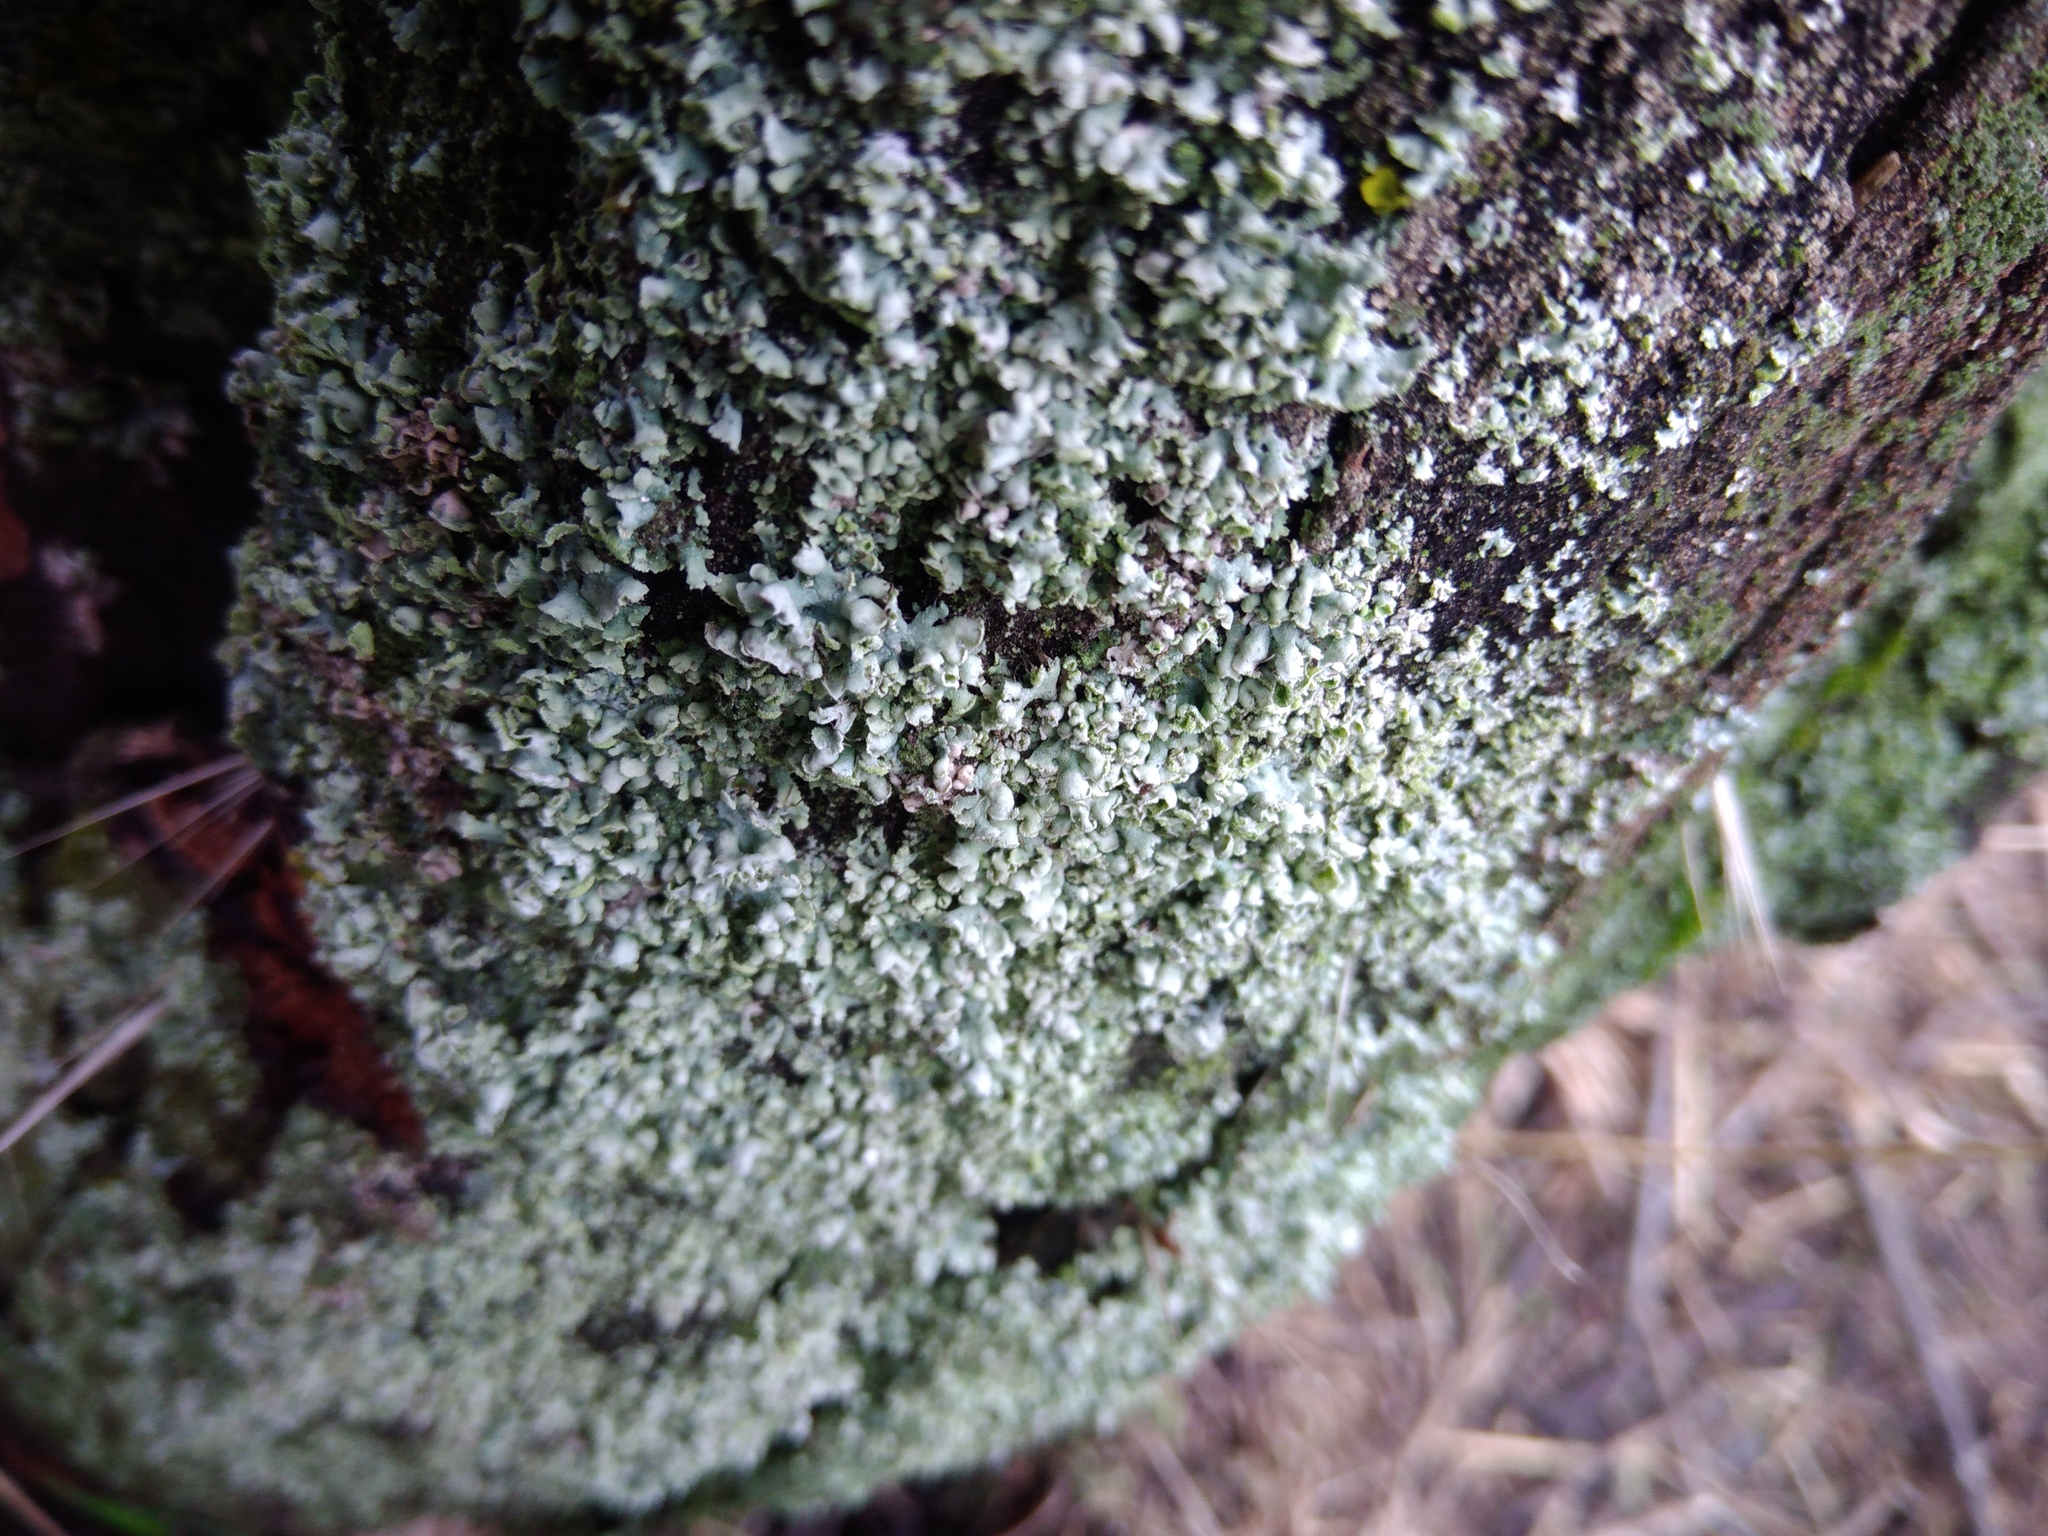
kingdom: Fungi
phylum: Ascomycota
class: Lecanoromycetes
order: Caliciales
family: Physciaceae
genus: Physcia
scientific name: Physcia adscendens
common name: Hooded rosette lichen
